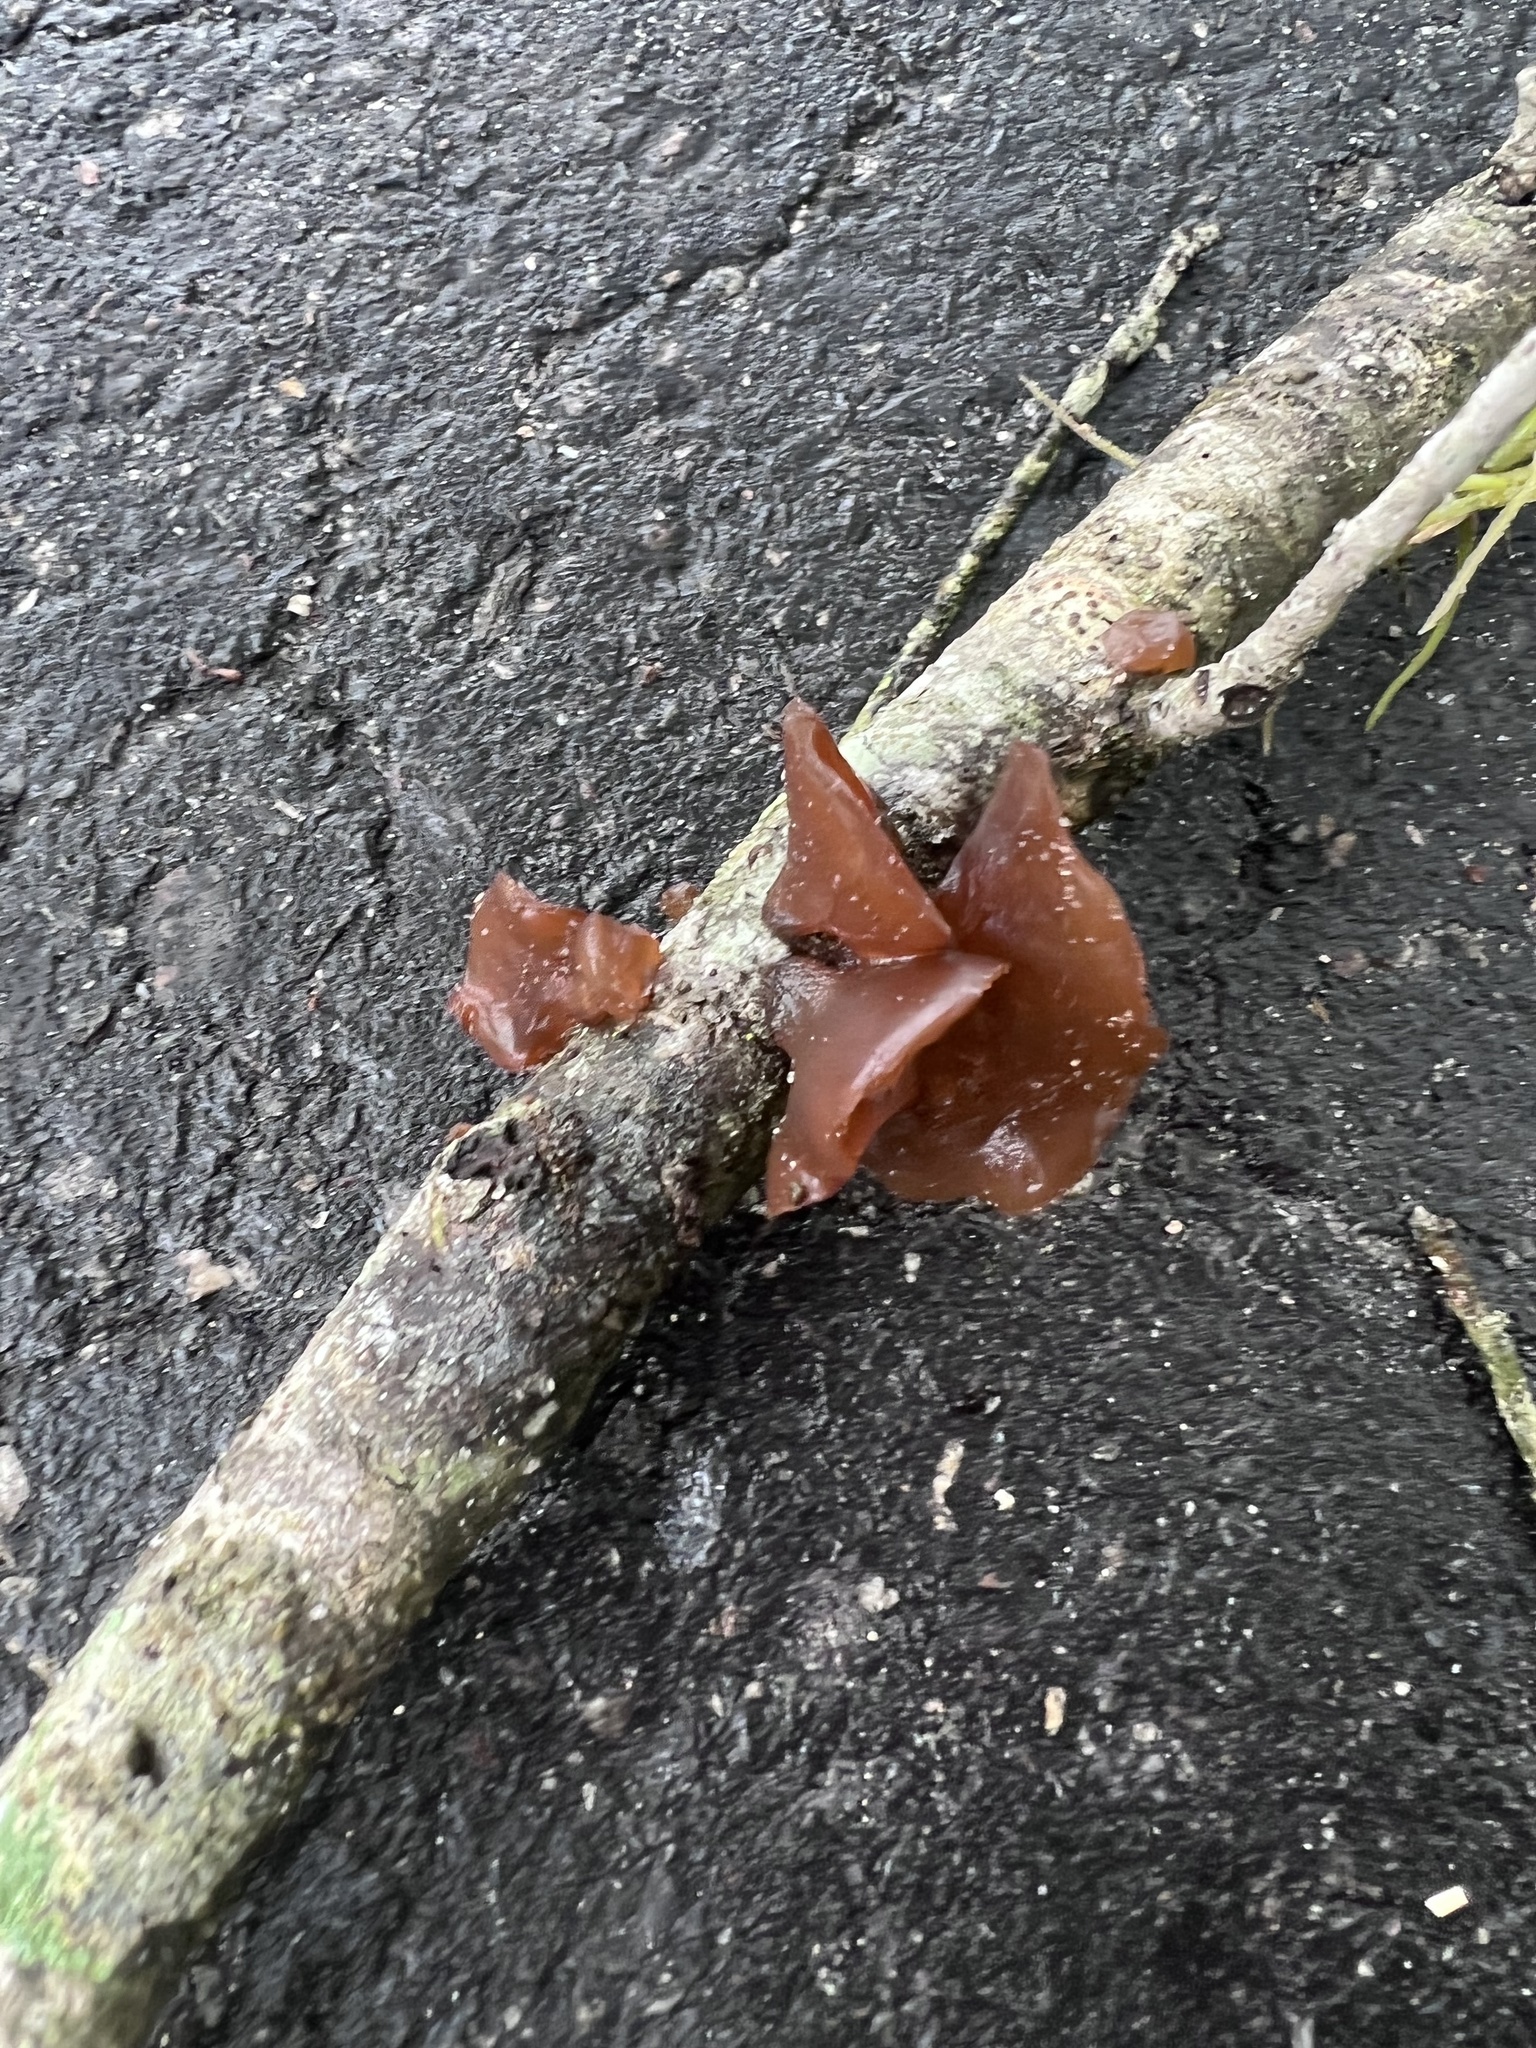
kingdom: Fungi
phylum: Basidiomycota
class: Agaricomycetes
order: Auriculariales
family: Auriculariaceae
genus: Exidia
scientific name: Exidia recisa
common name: Amber jelly
